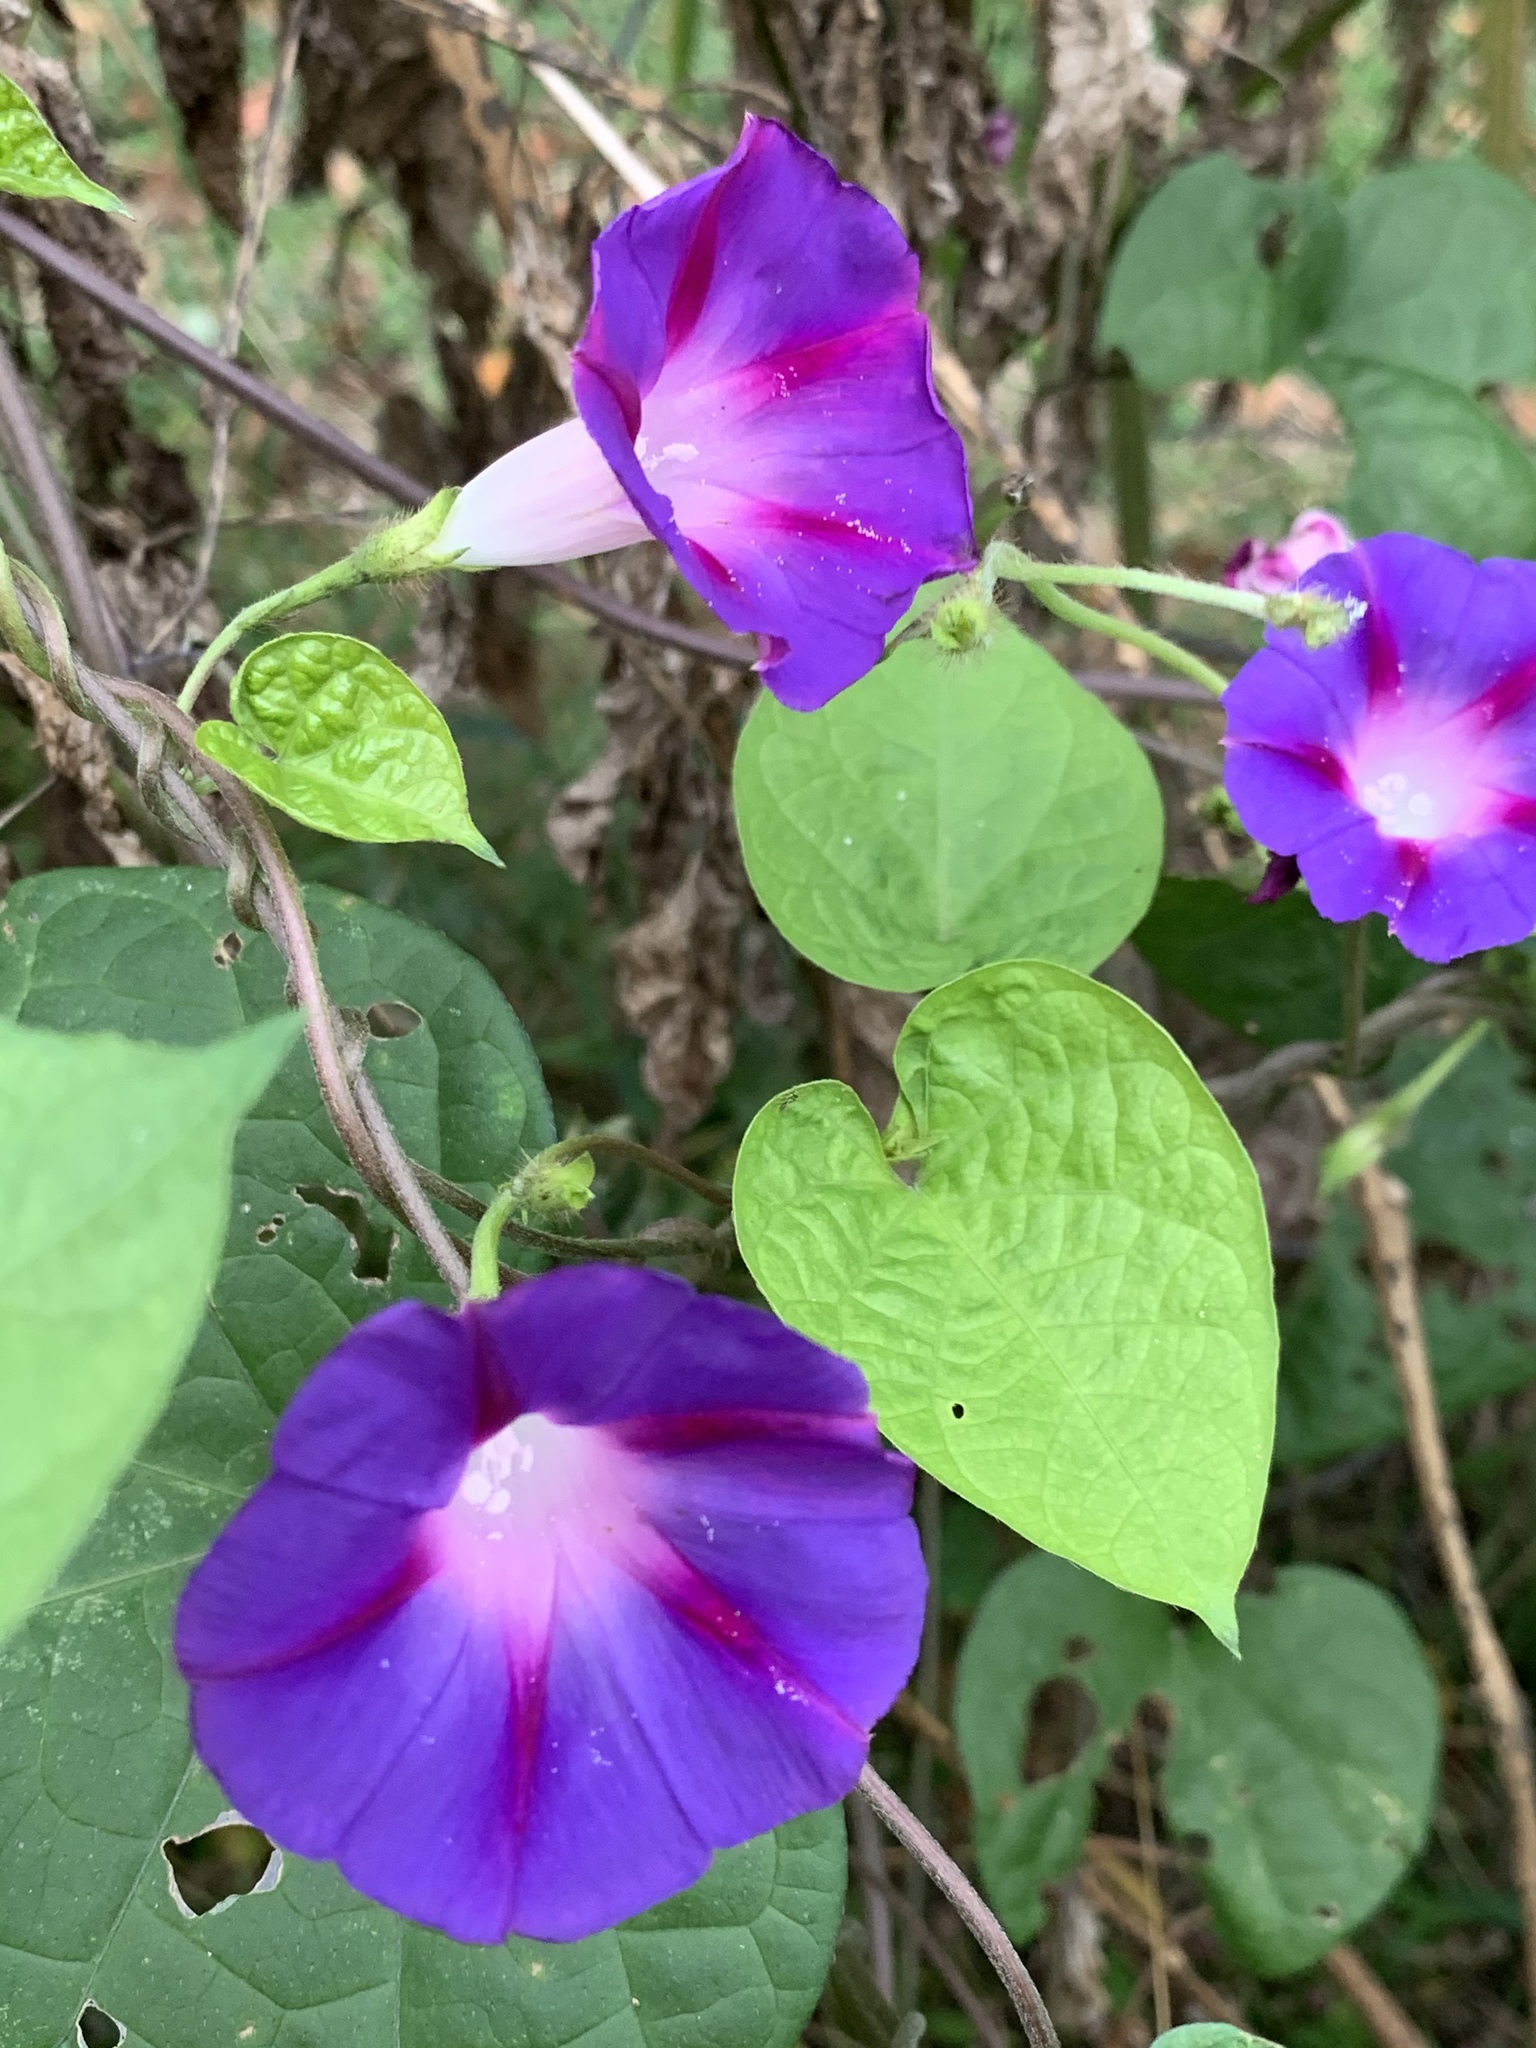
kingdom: Plantae
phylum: Tracheophyta
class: Magnoliopsida
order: Solanales
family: Convolvulaceae
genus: Ipomoea
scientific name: Ipomoea purpurea
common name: Common morning-glory
